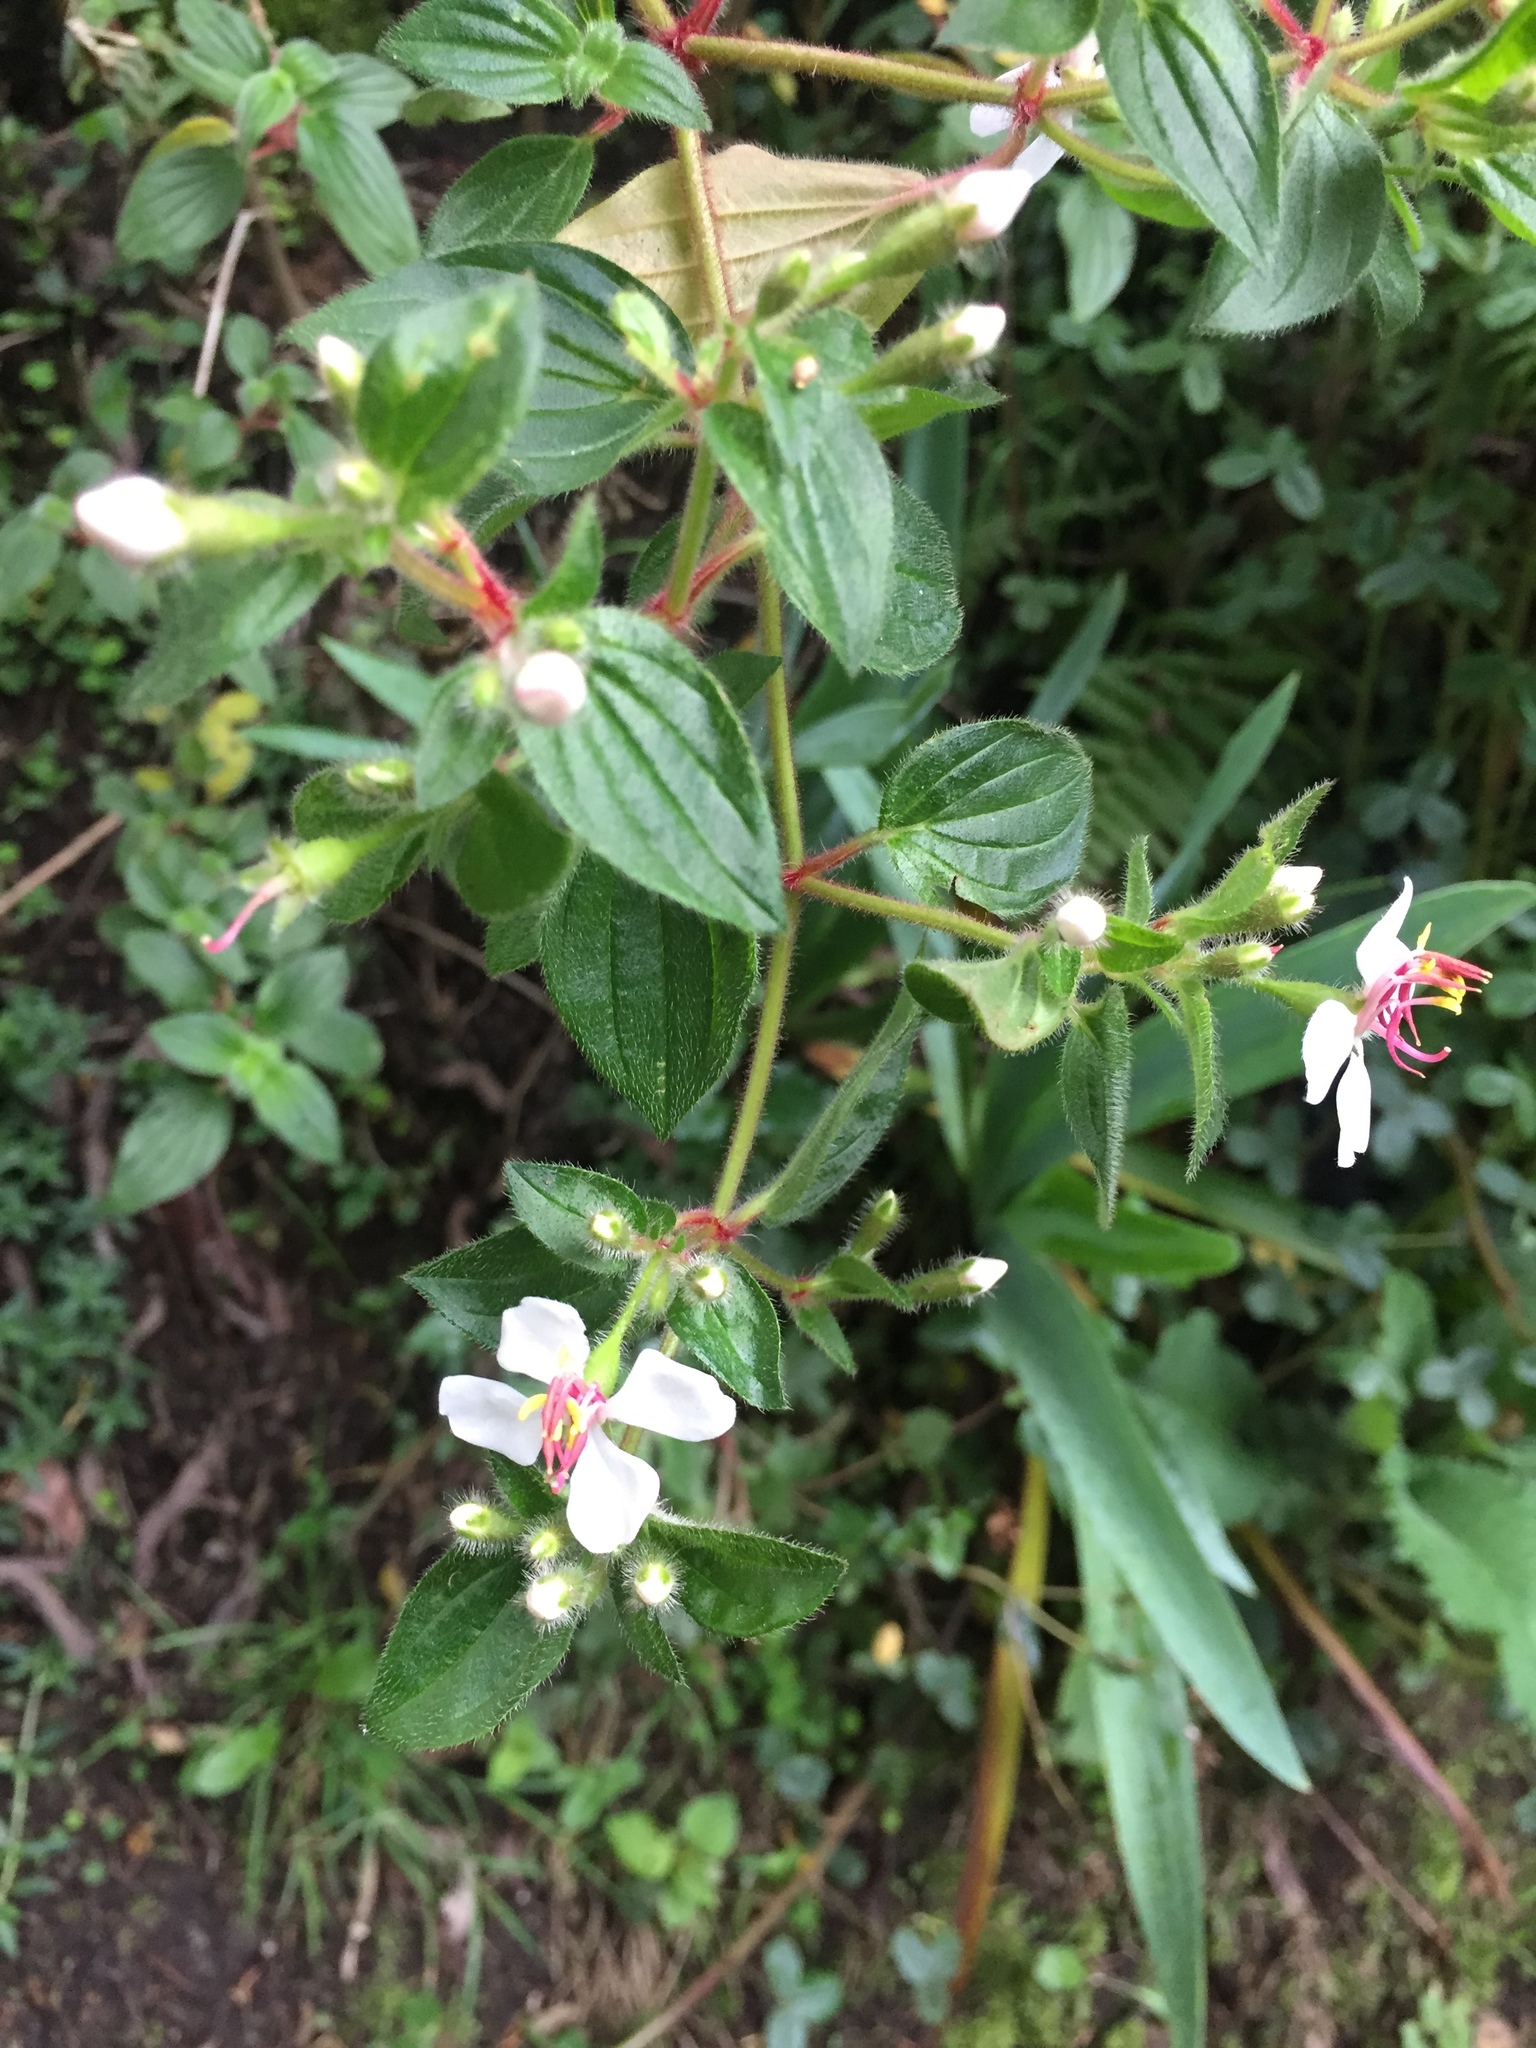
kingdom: Plantae
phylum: Tracheophyta
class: Magnoliopsida
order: Myrtales
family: Melastomataceae
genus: Monochaetum
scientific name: Monochaetum glanduliferum
